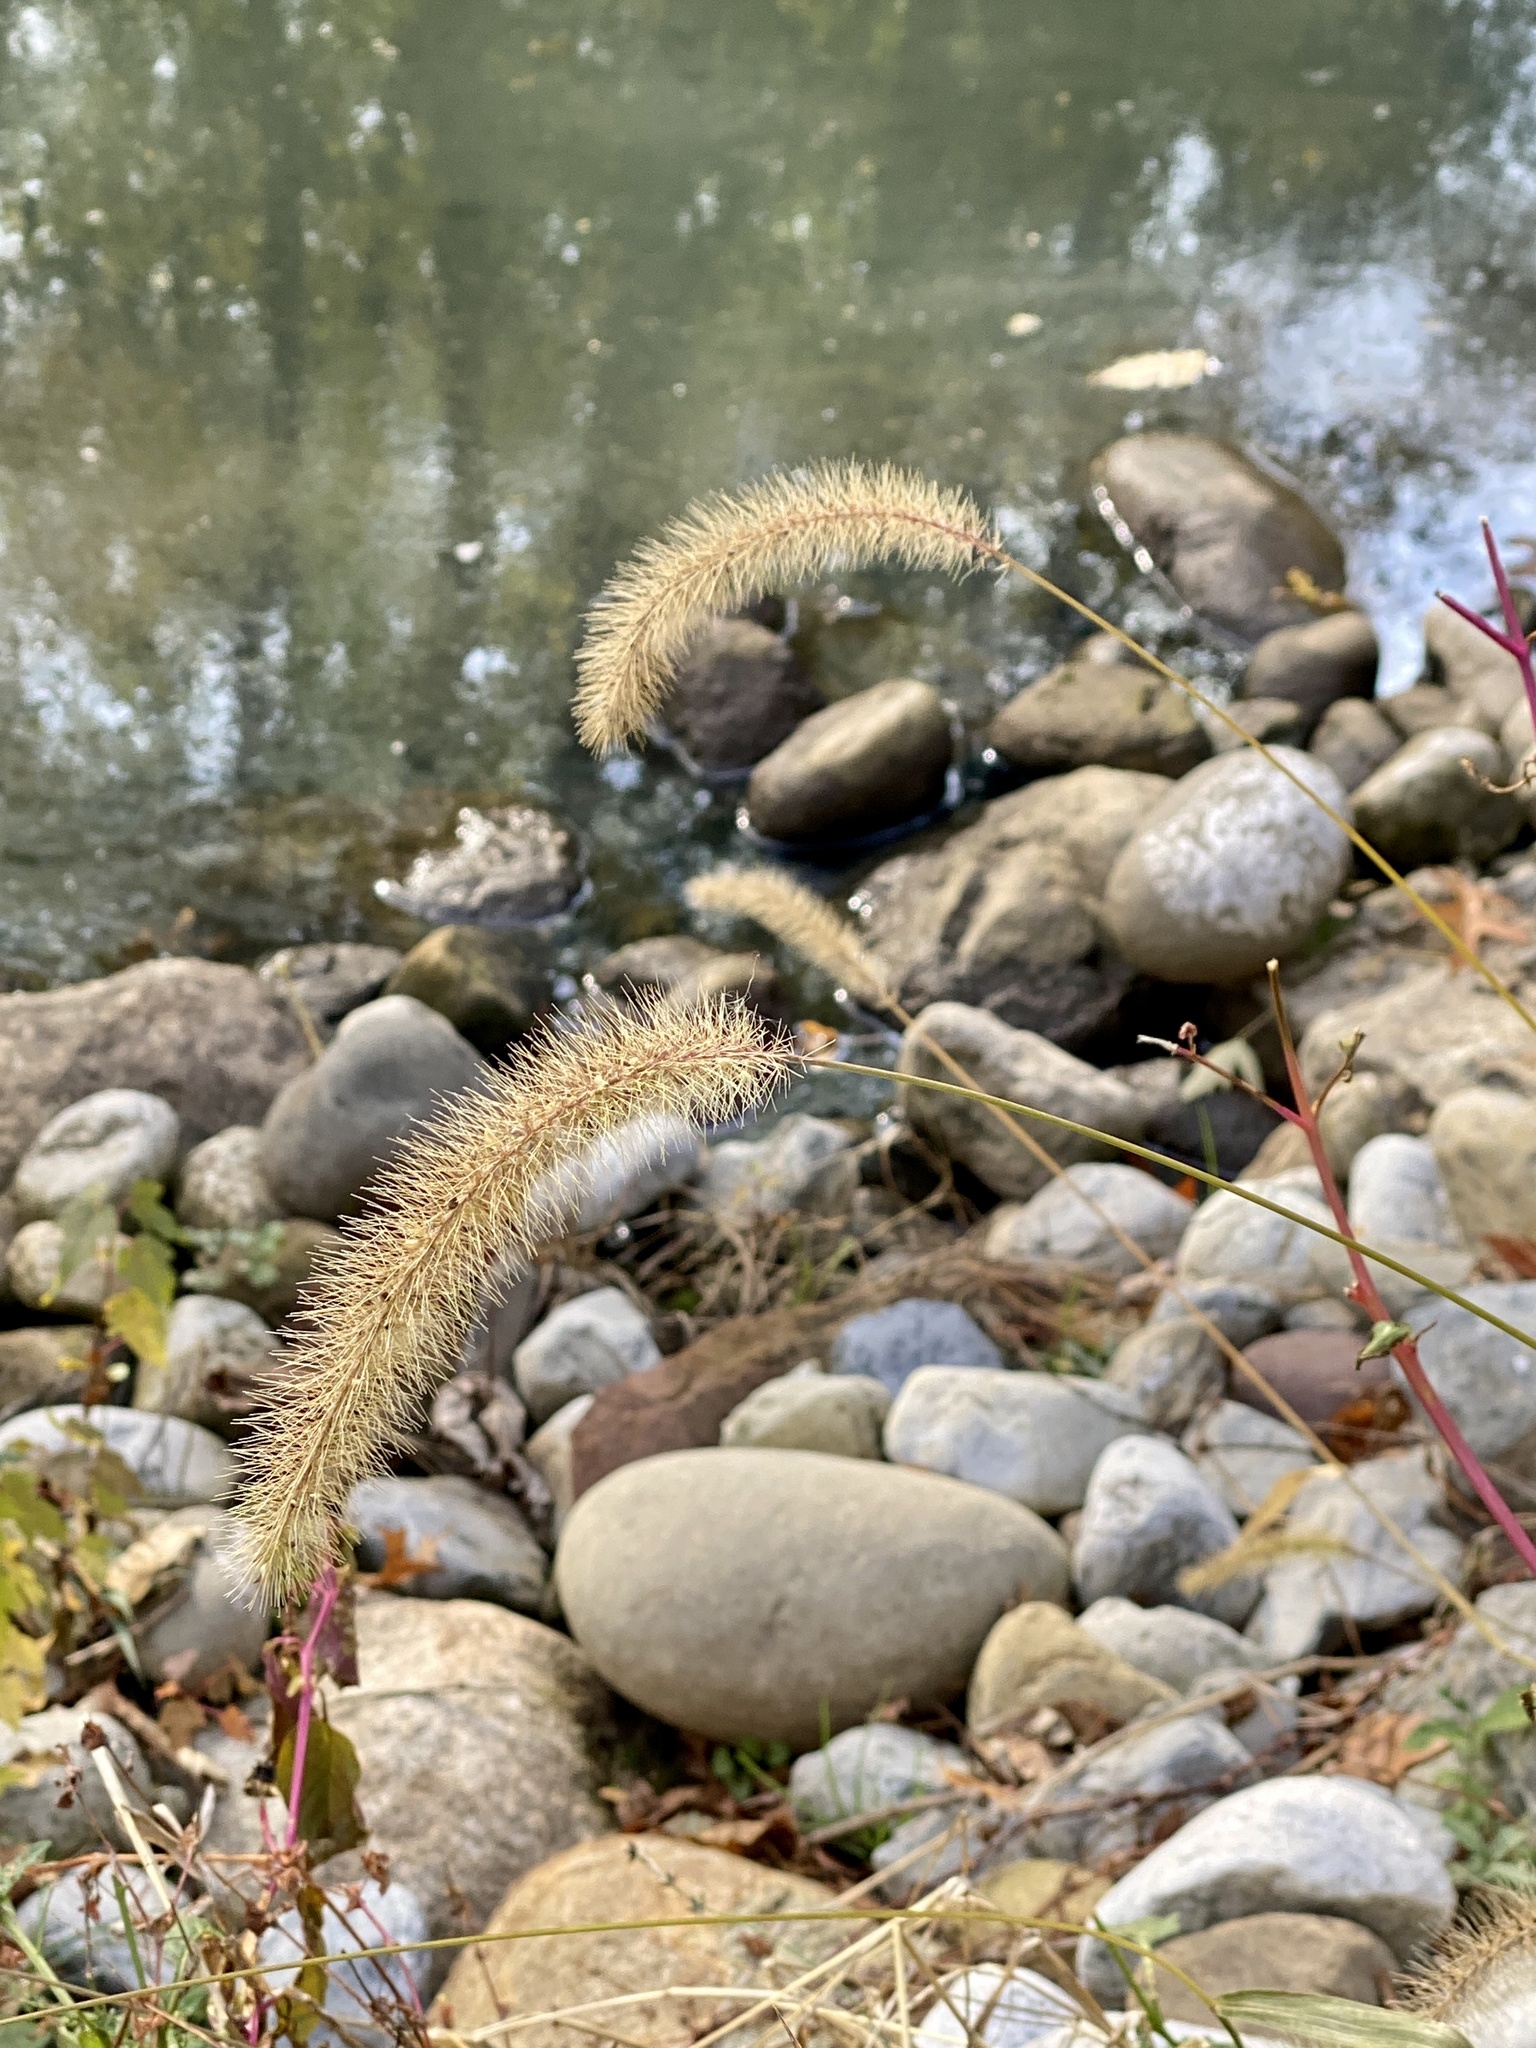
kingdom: Plantae
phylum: Tracheophyta
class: Liliopsida
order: Poales
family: Poaceae
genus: Setaria
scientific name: Setaria faberi
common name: Nodding bristle-grass
